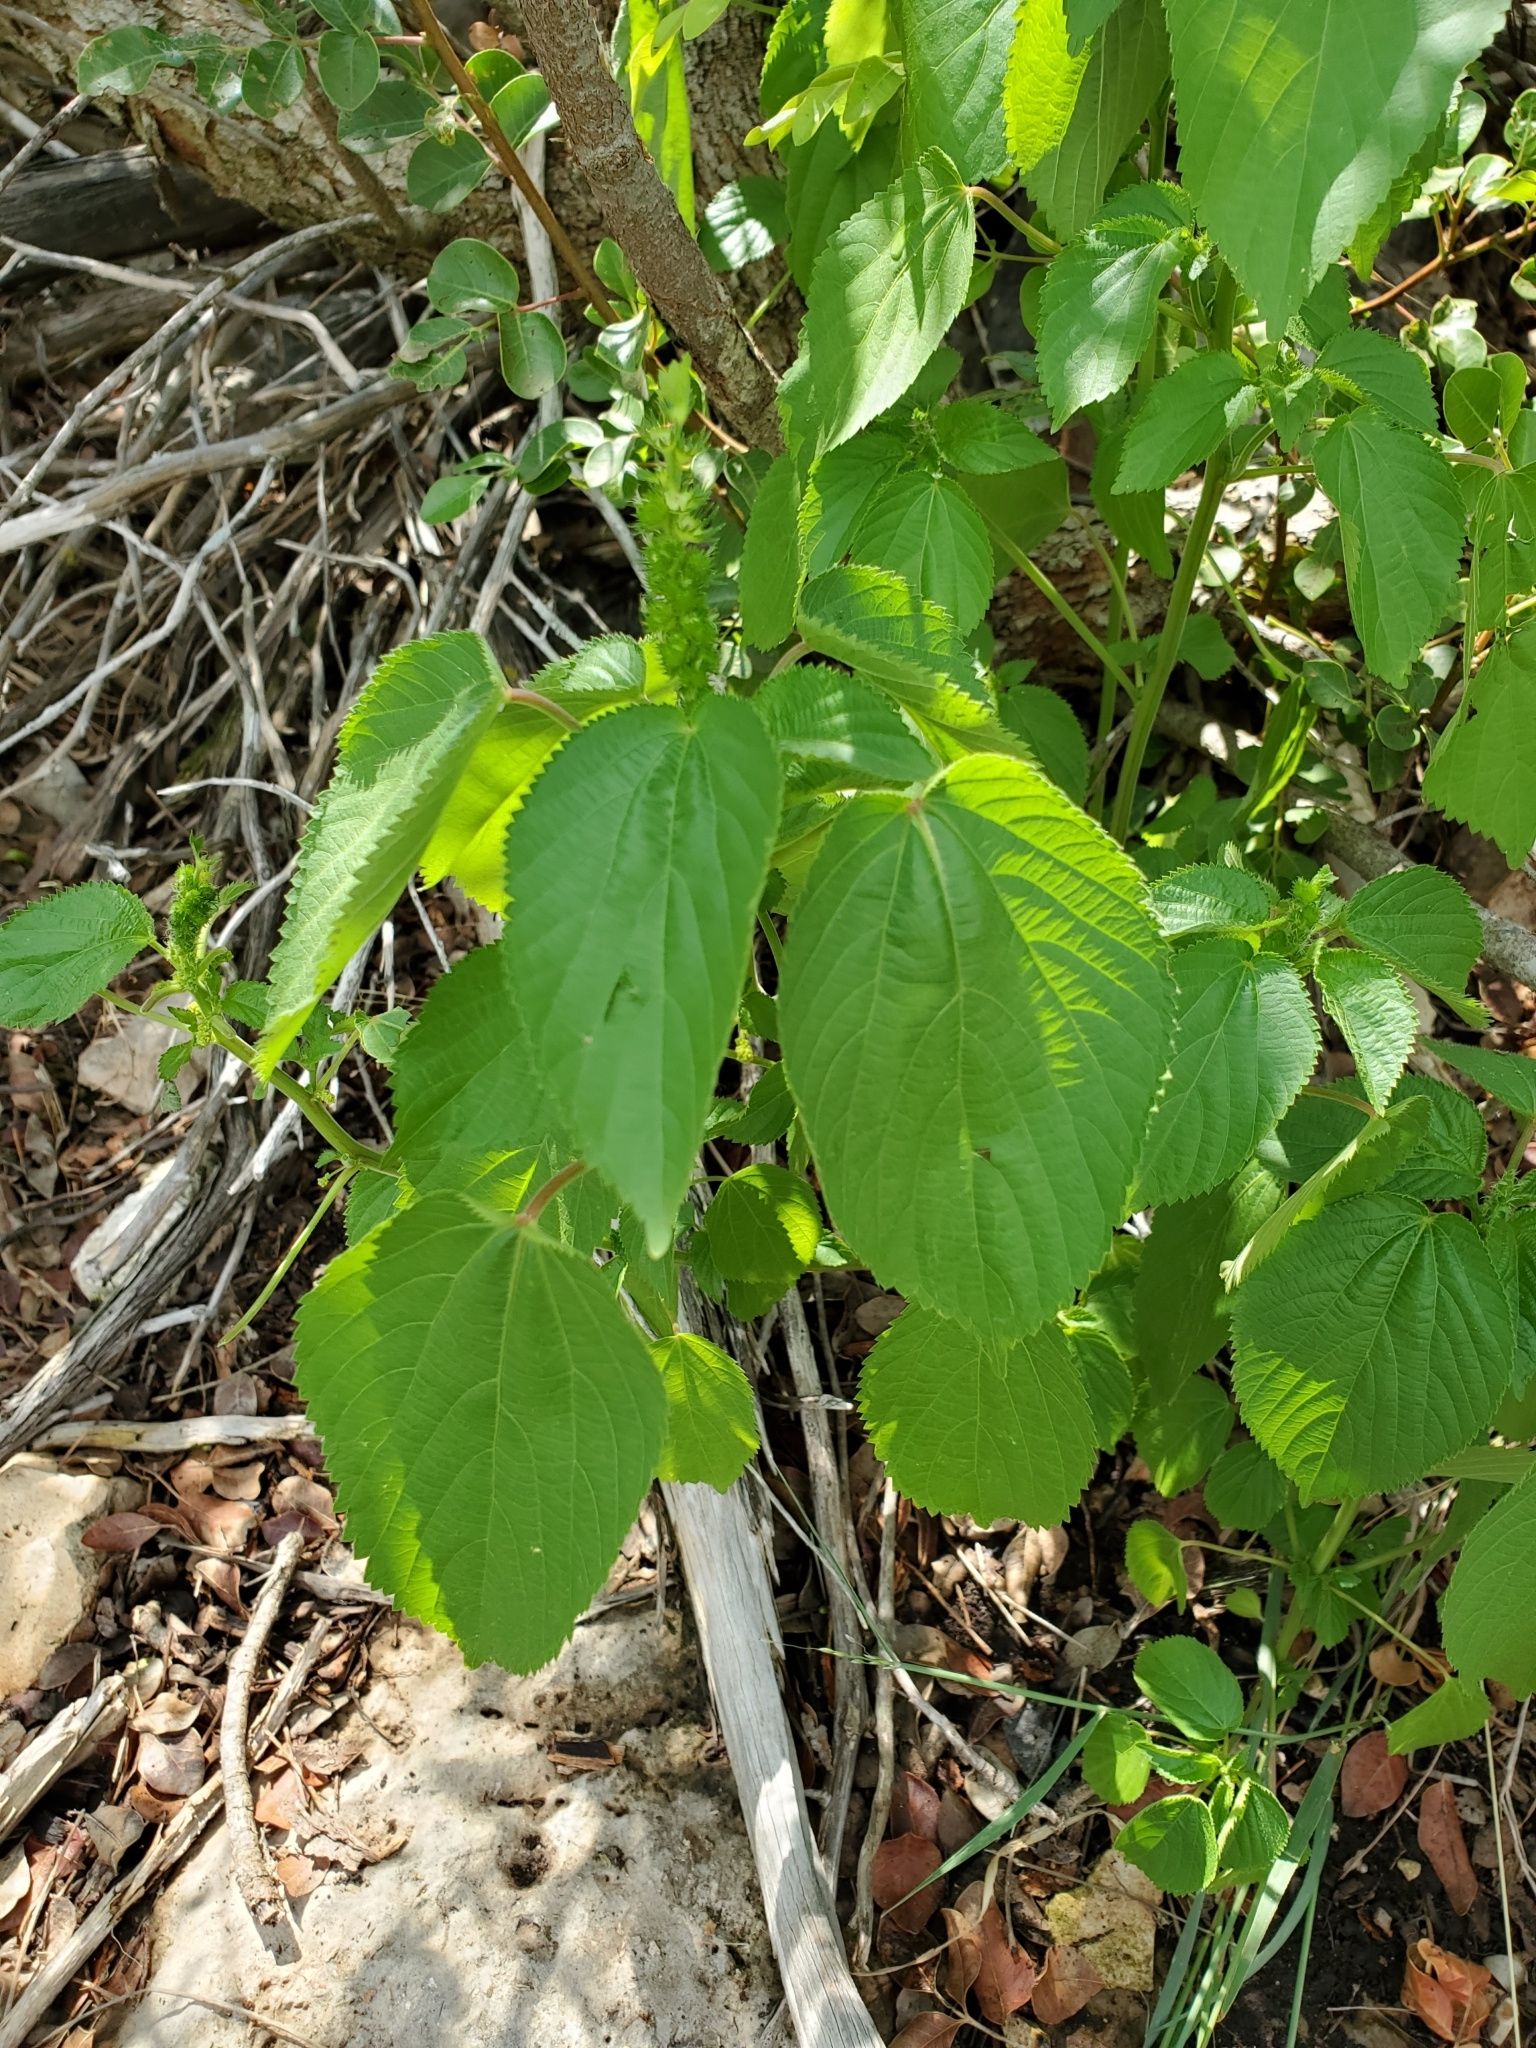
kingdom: Plantae
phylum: Tracheophyta
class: Magnoliopsida
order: Malpighiales
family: Euphorbiaceae
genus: Acalypha
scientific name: Acalypha ostryifolia
